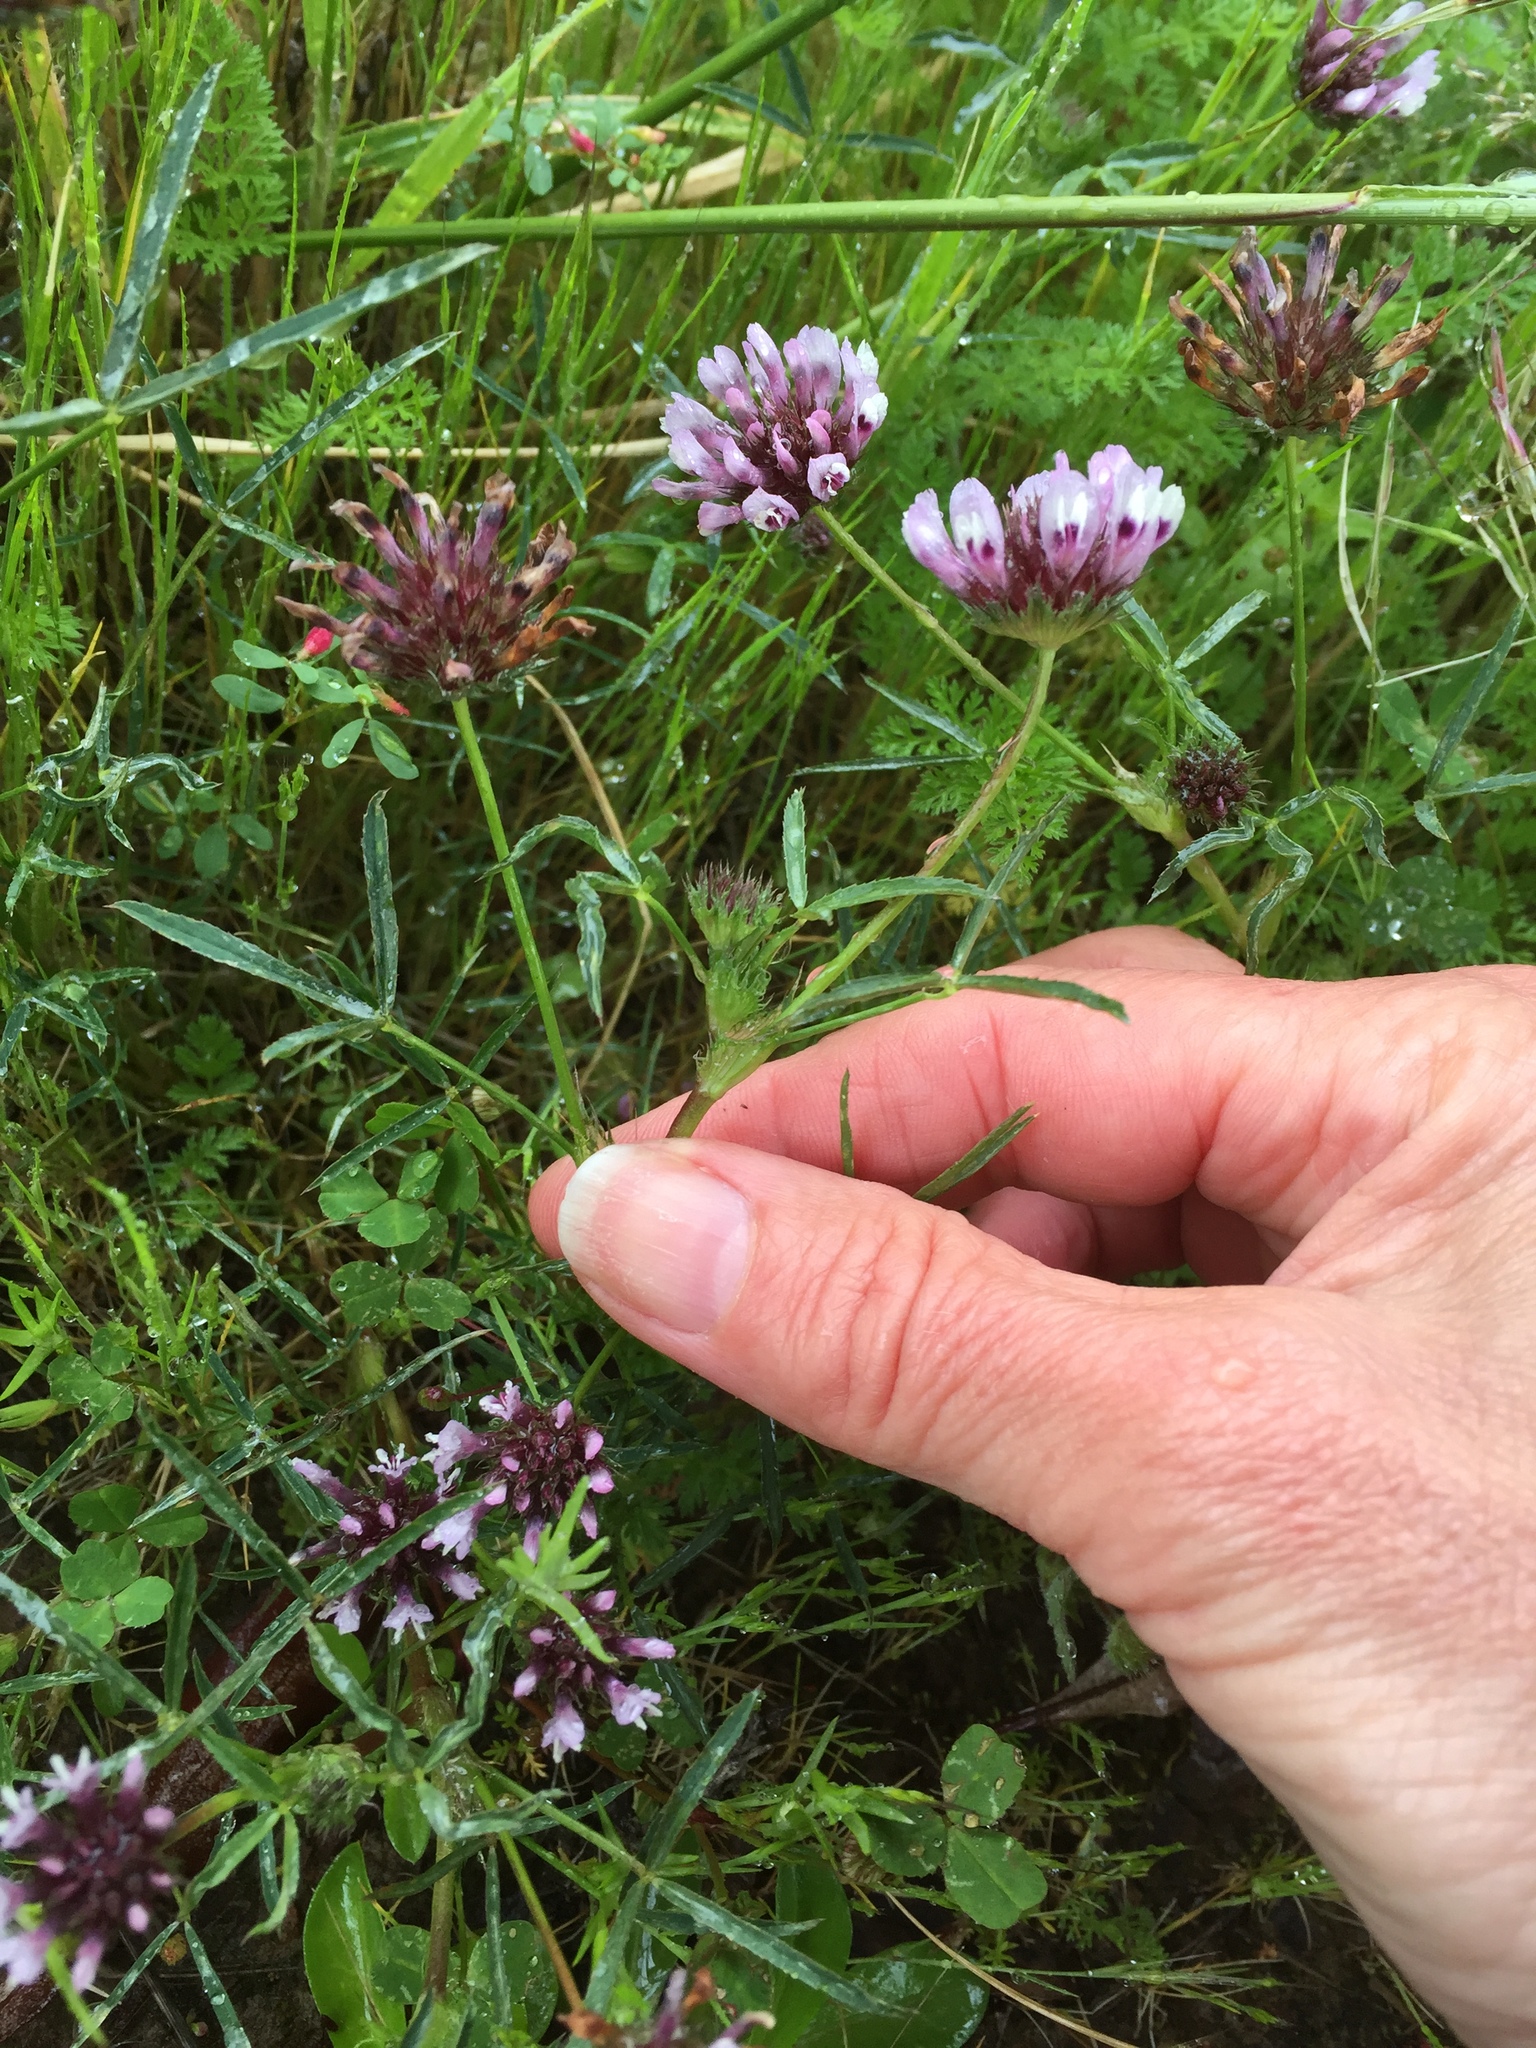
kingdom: Plantae
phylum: Tracheophyta
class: Magnoliopsida
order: Fabales
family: Fabaceae
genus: Trifolium
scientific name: Trifolium willdenovii
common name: Tomcat clover
